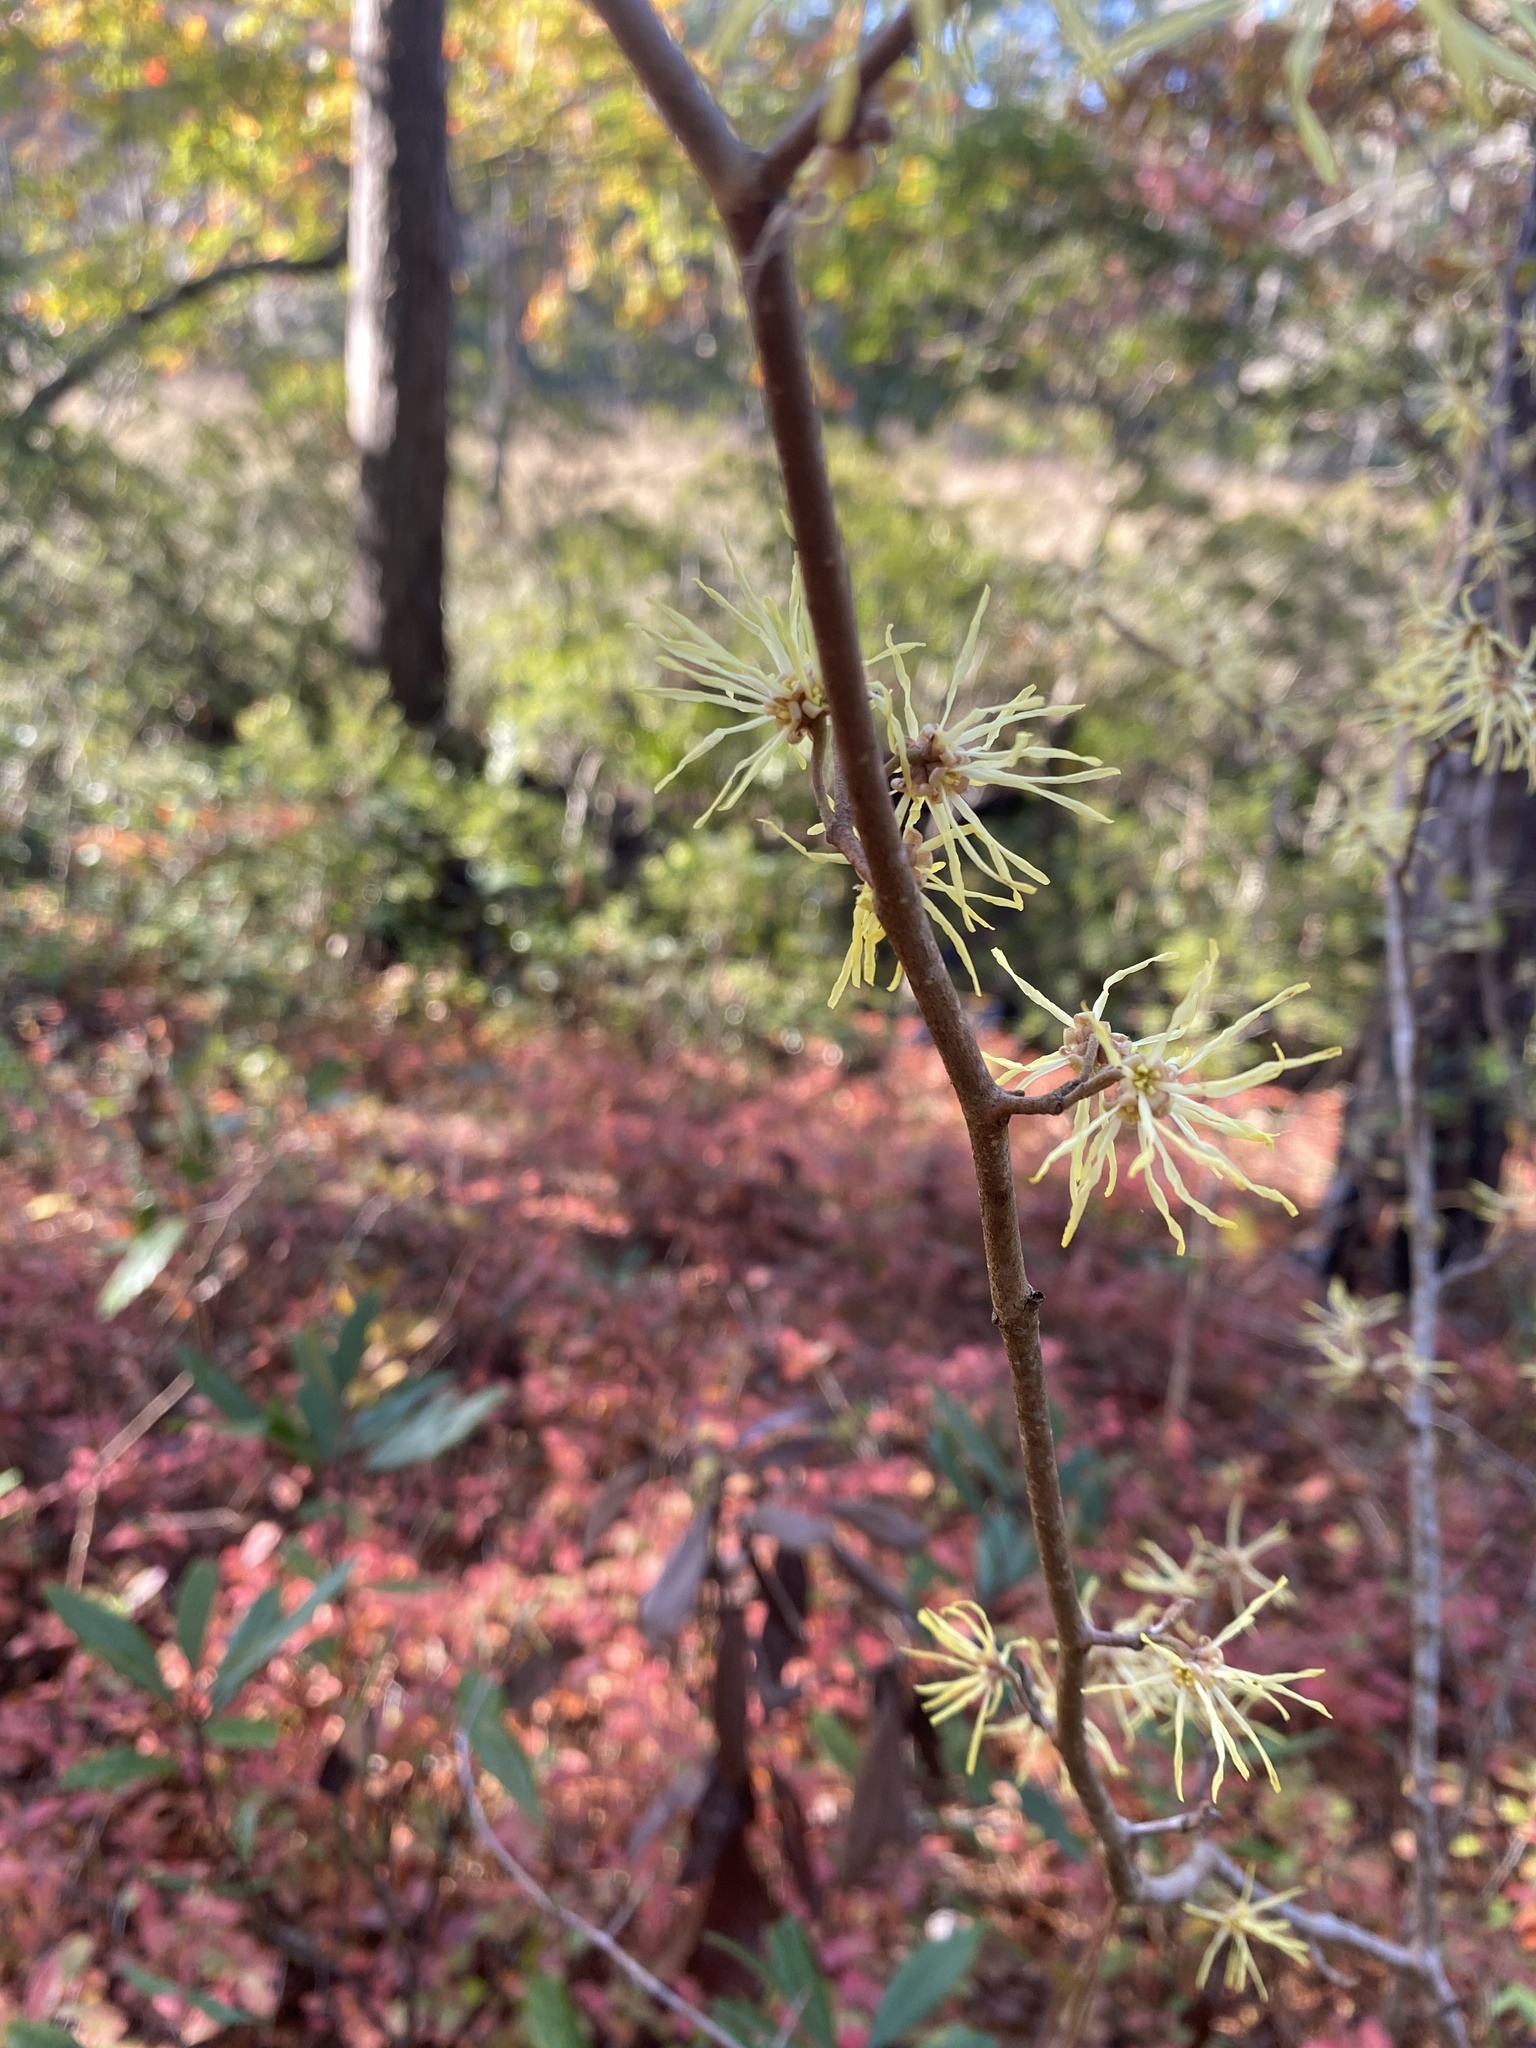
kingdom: Plantae
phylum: Tracheophyta
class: Magnoliopsida
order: Saxifragales
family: Hamamelidaceae
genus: Hamamelis
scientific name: Hamamelis virginiana
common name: Witch-hazel
